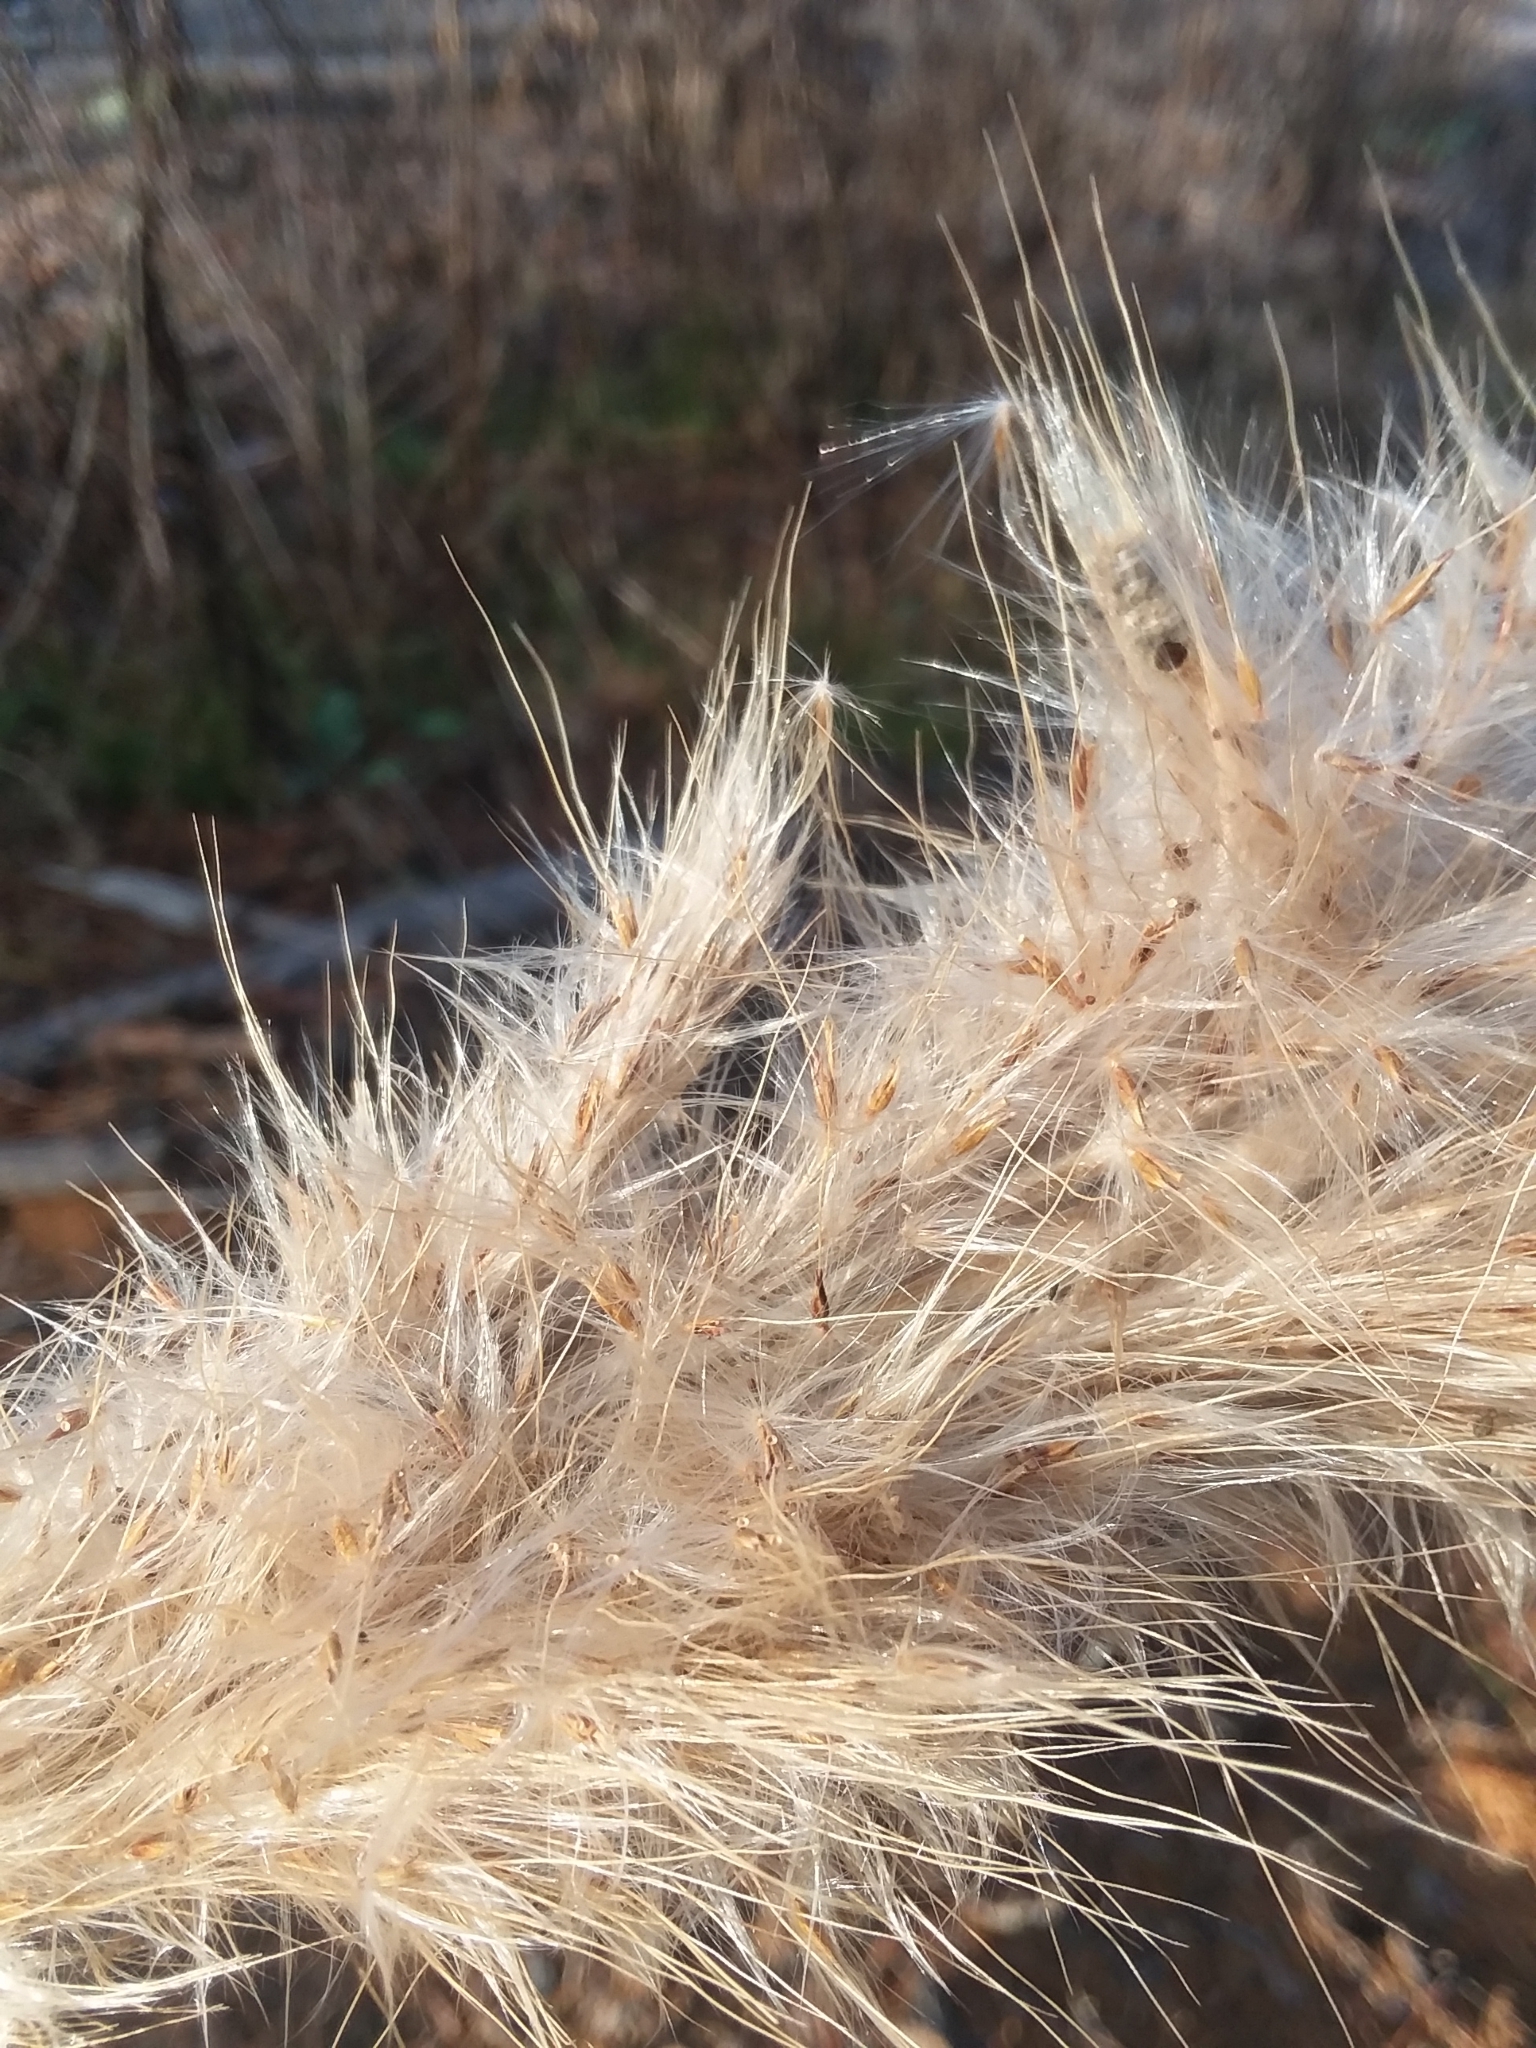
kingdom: Plantae
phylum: Tracheophyta
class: Liliopsida
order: Poales
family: Poaceae
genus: Erianthus
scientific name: Erianthus giganteus
